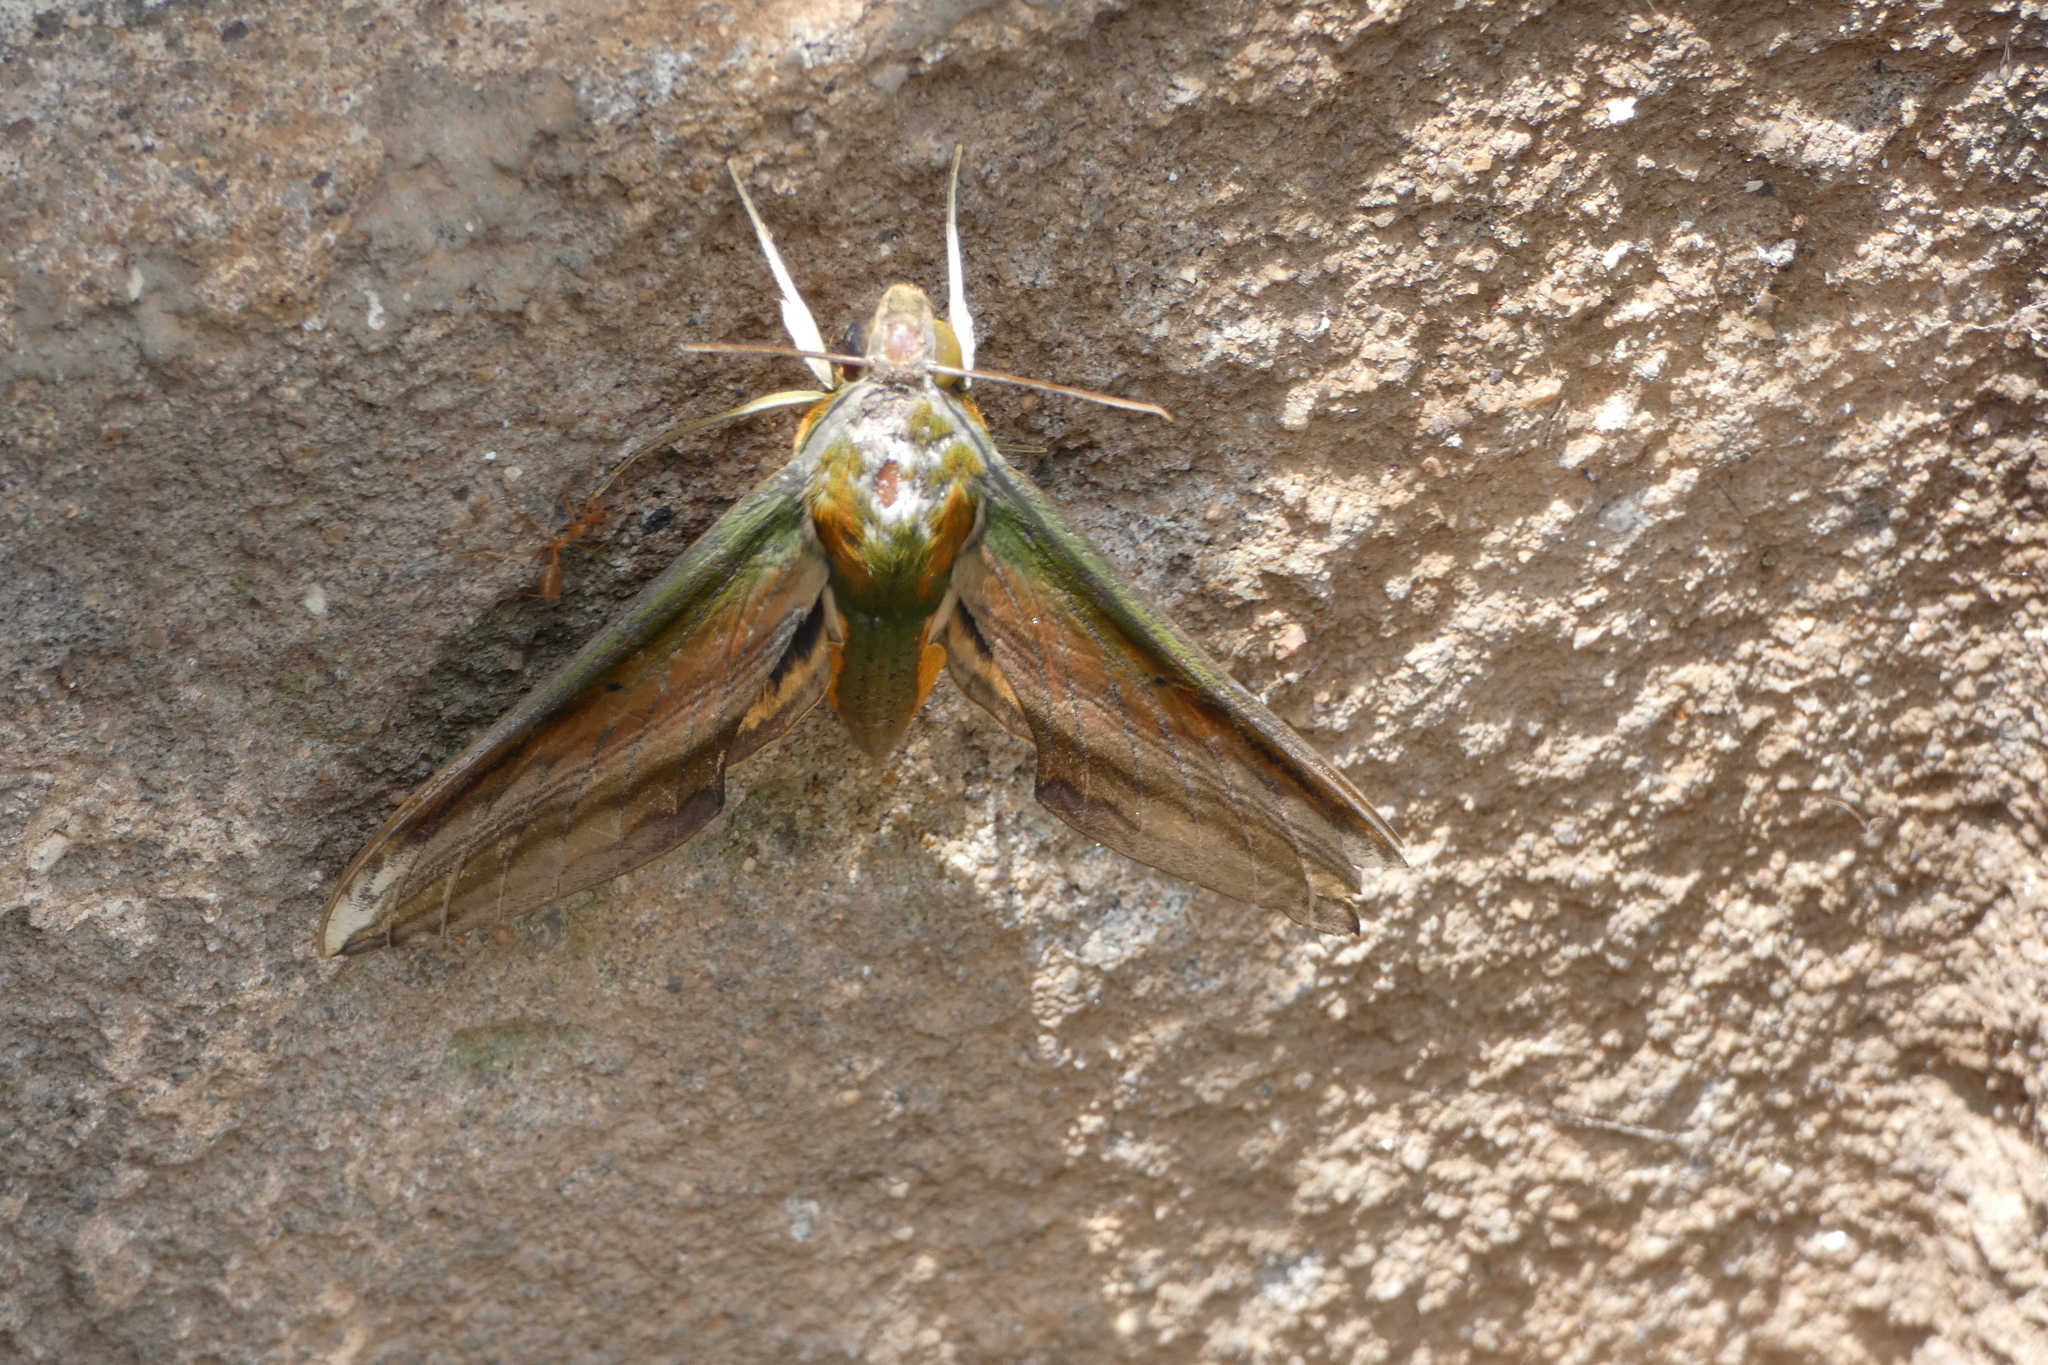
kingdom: Animalia
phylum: Arthropoda
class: Insecta
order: Lepidoptera
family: Sphingidae
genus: Theretra
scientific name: Theretra nessus
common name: Yam hawk moth
